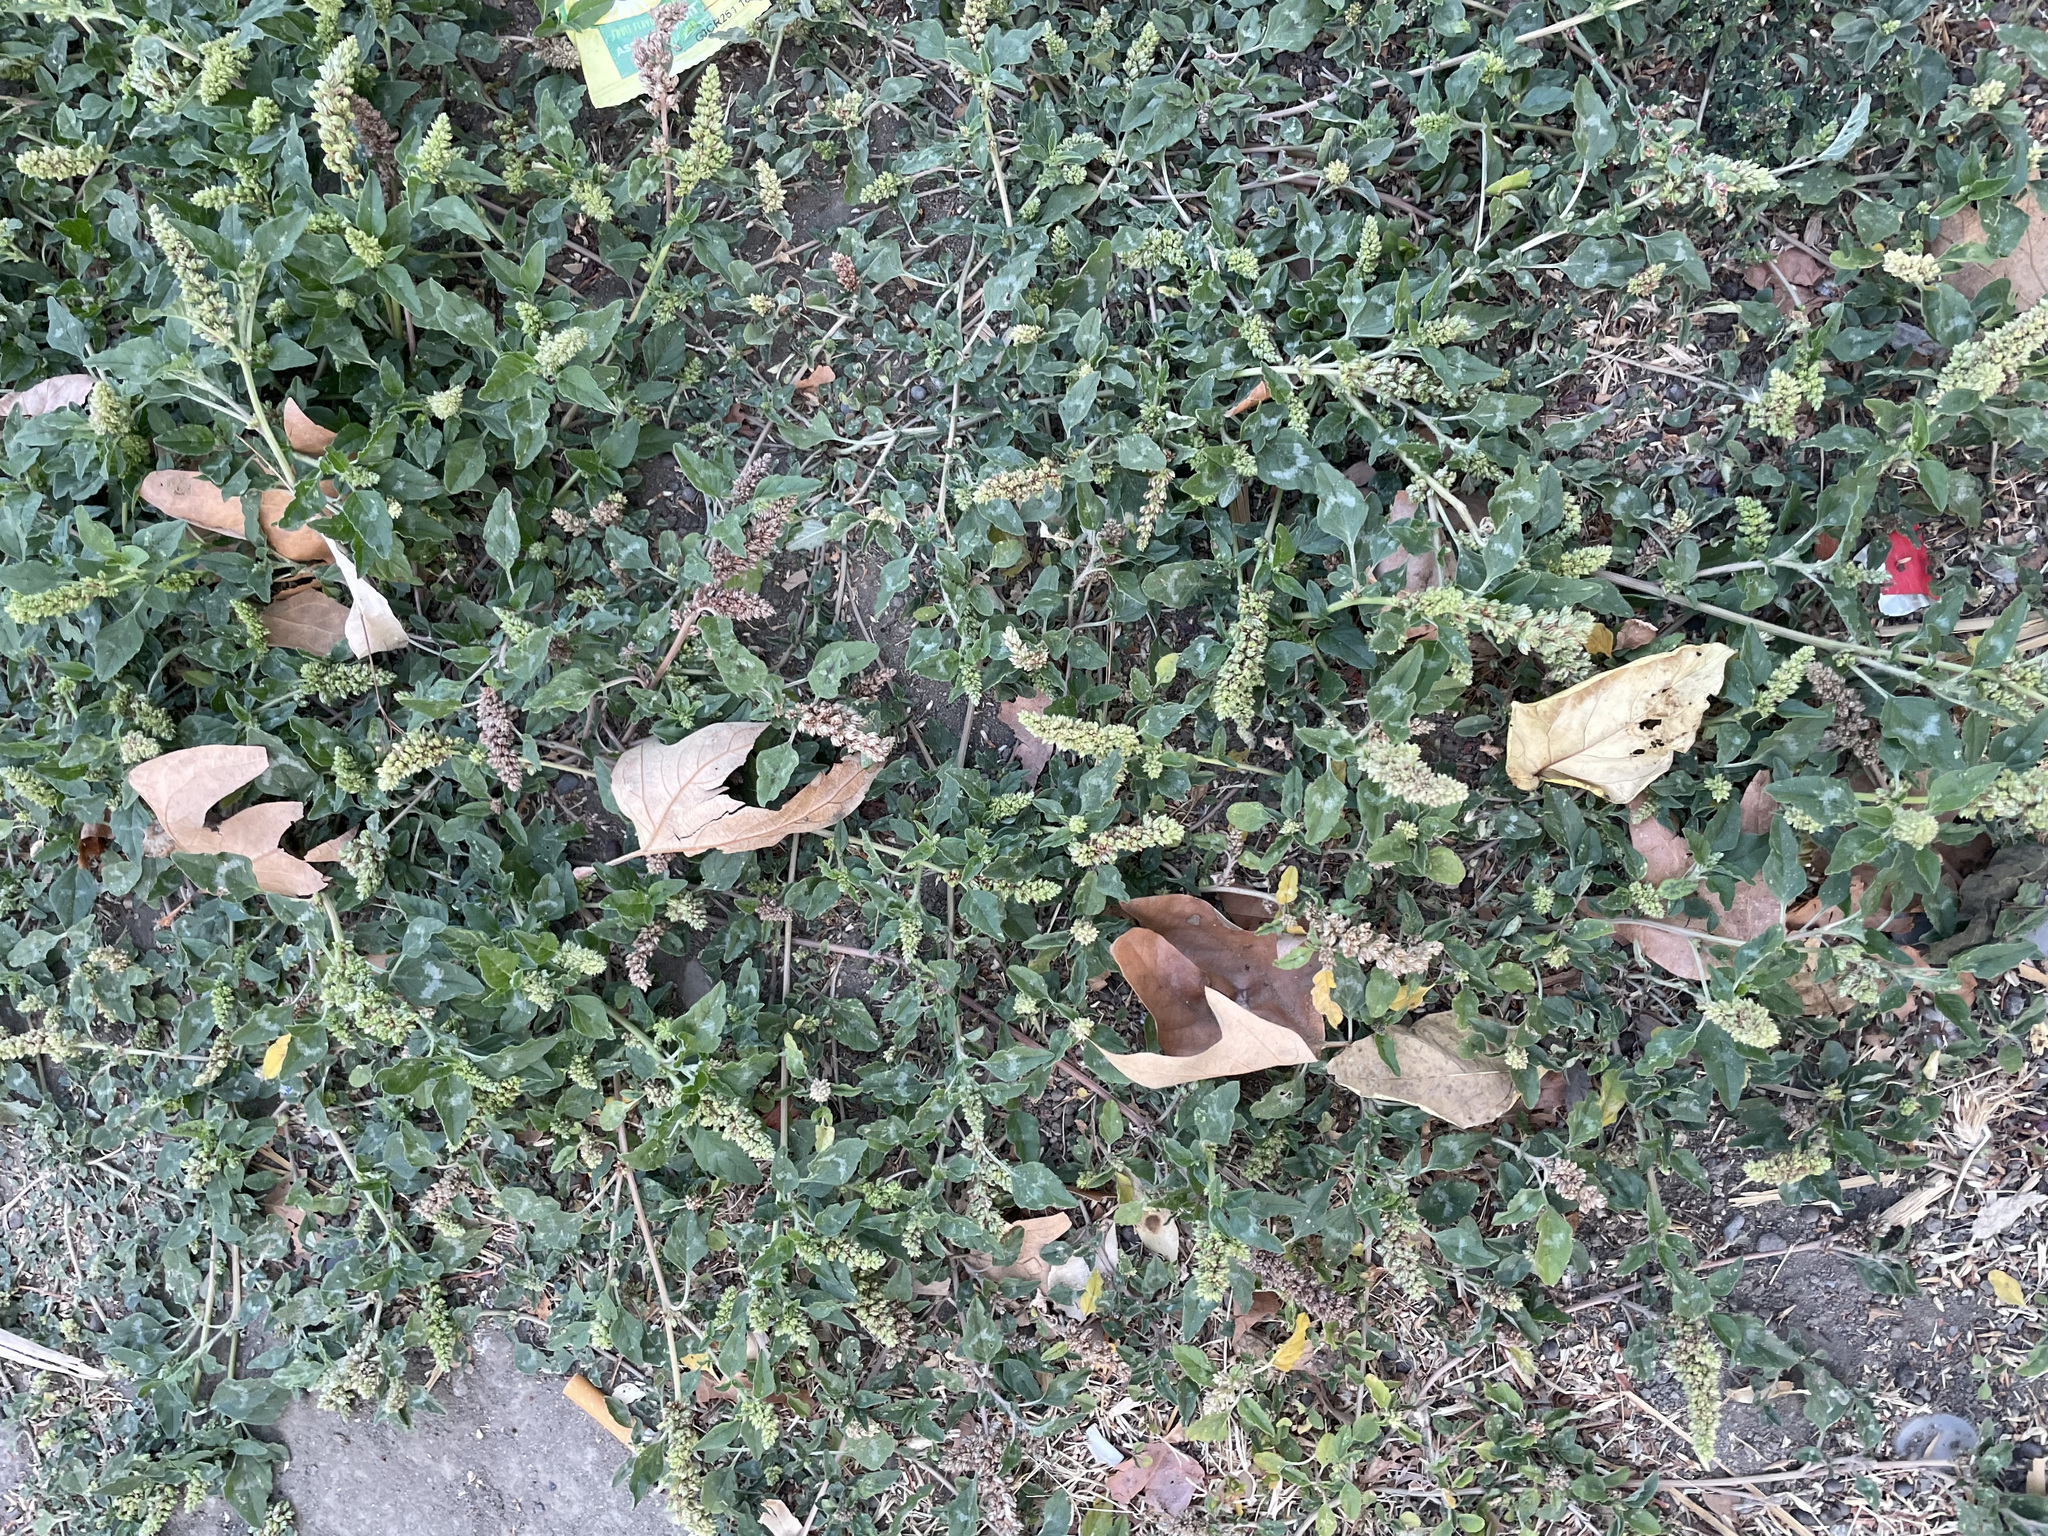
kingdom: Plantae
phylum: Tracheophyta
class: Magnoliopsida
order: Caryophyllales
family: Amaranthaceae
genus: Amaranthus
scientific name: Amaranthus deflexus
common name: Perennial pigweed
